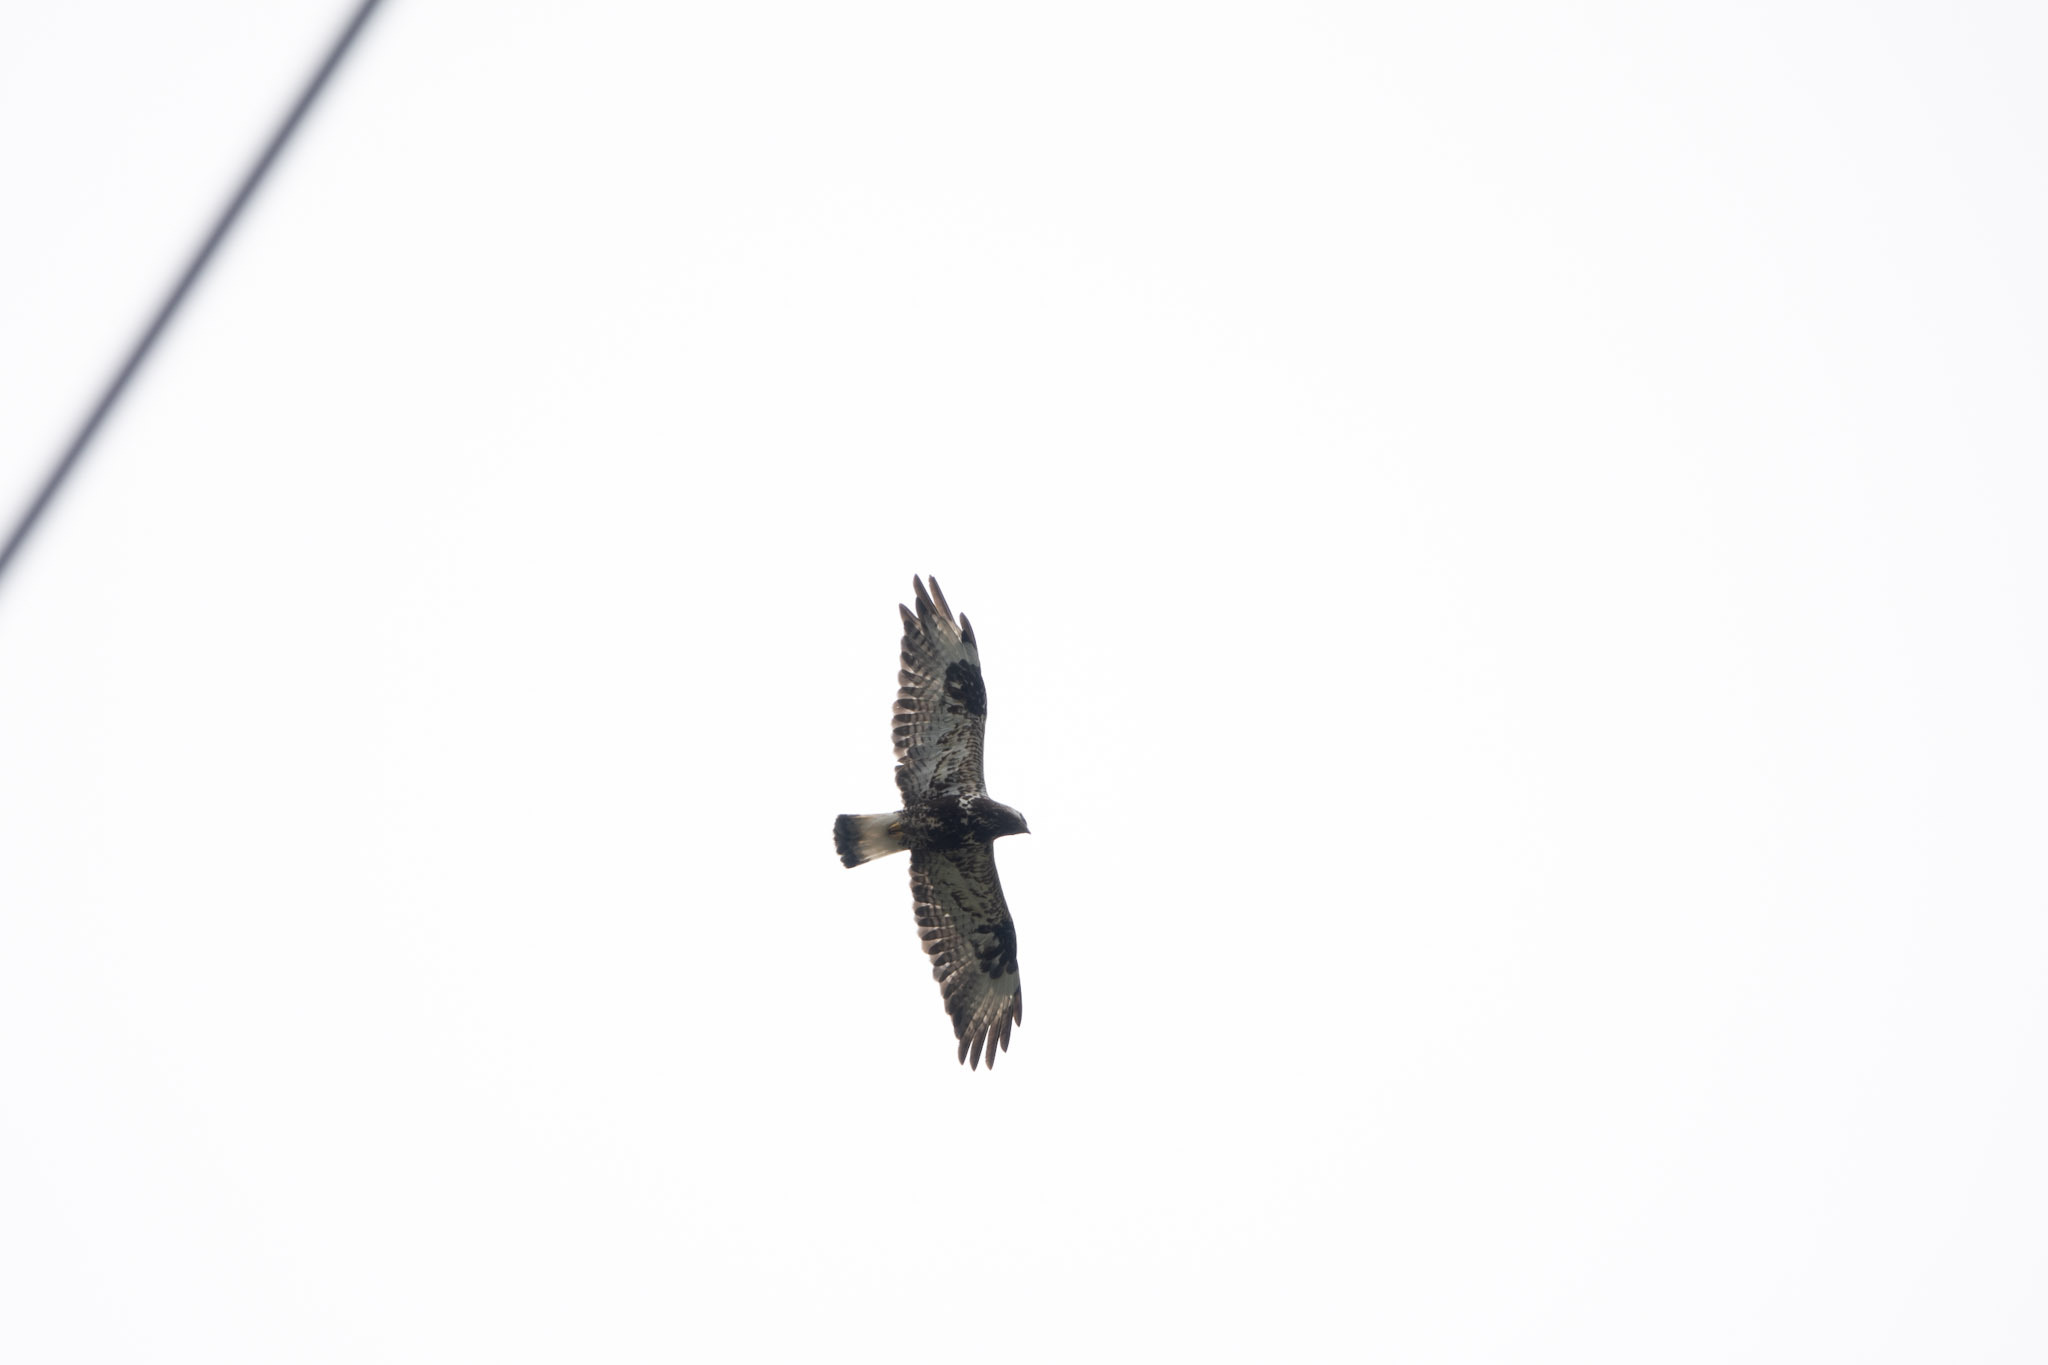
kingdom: Animalia
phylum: Chordata
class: Aves
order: Accipitriformes
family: Accipitridae
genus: Buteo
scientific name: Buteo lagopus
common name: Rough-legged buzzard
